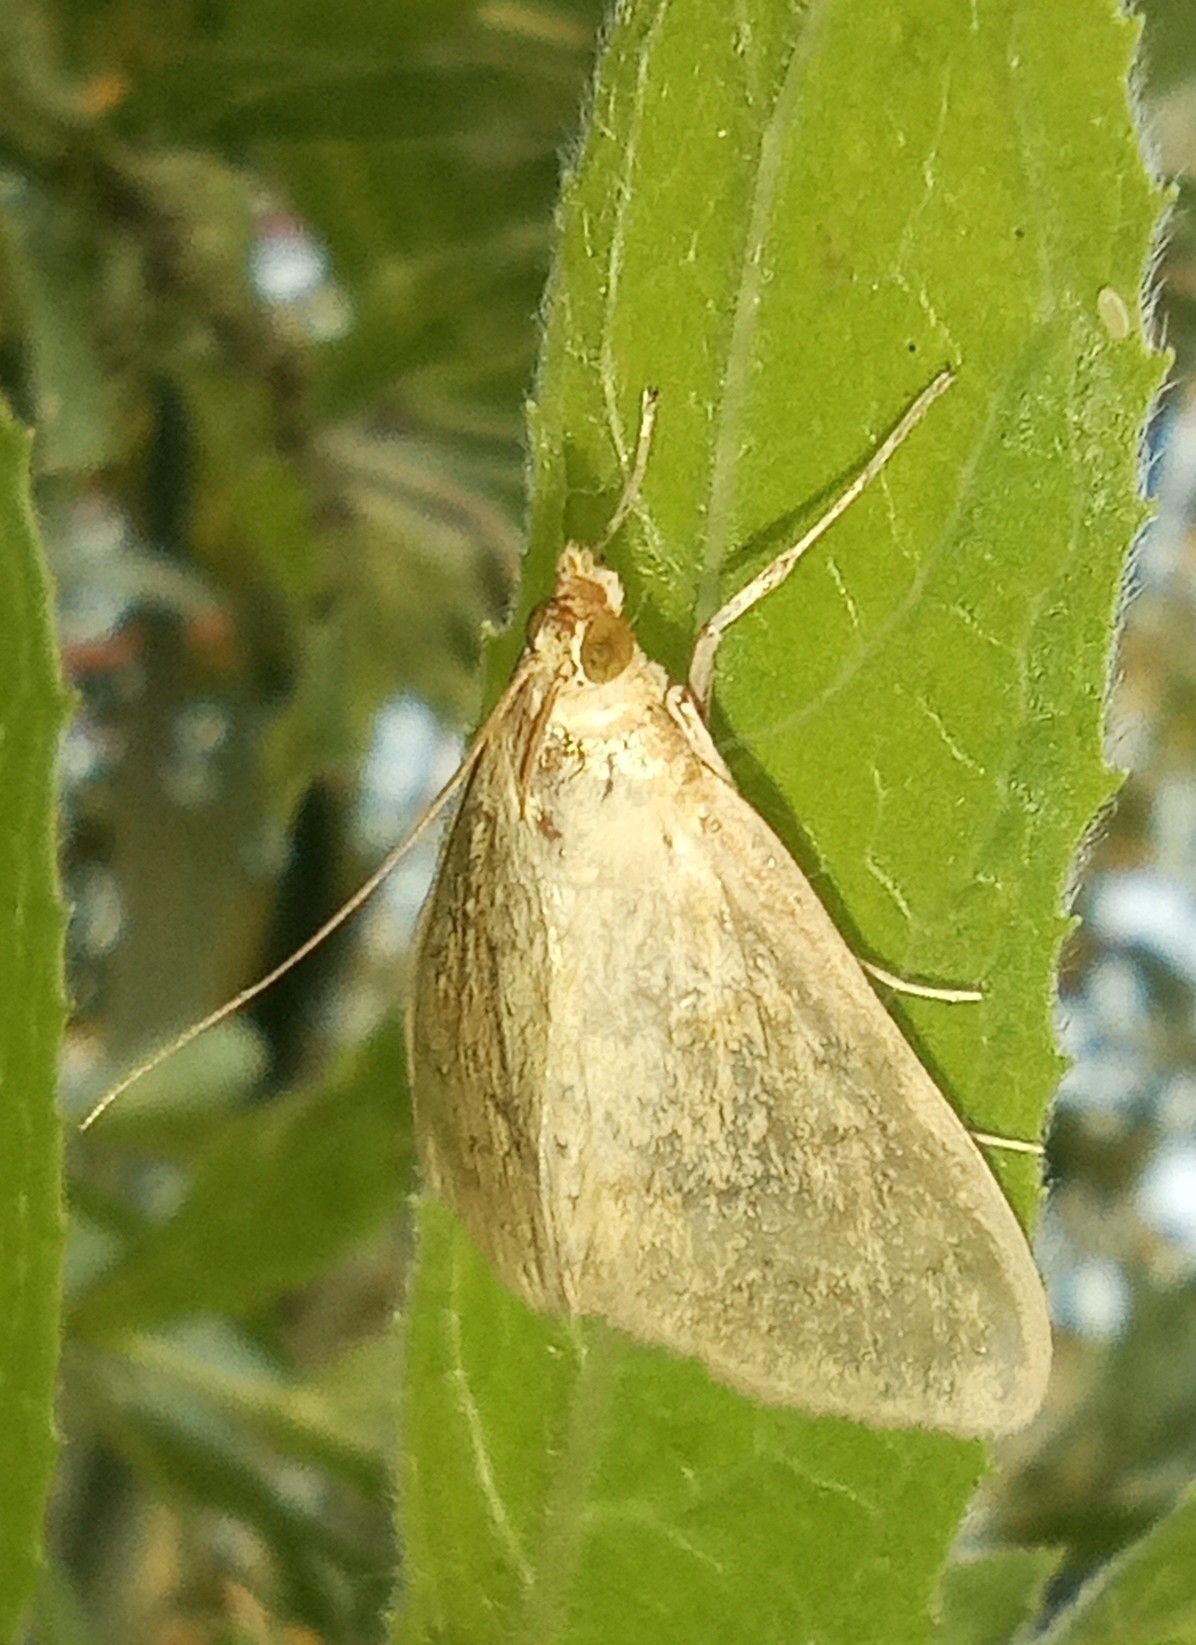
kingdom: Animalia
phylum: Arthropoda
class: Insecta
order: Lepidoptera
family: Crambidae
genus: Sitochroa
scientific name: Sitochroa verticalis
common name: Lesser pearl
